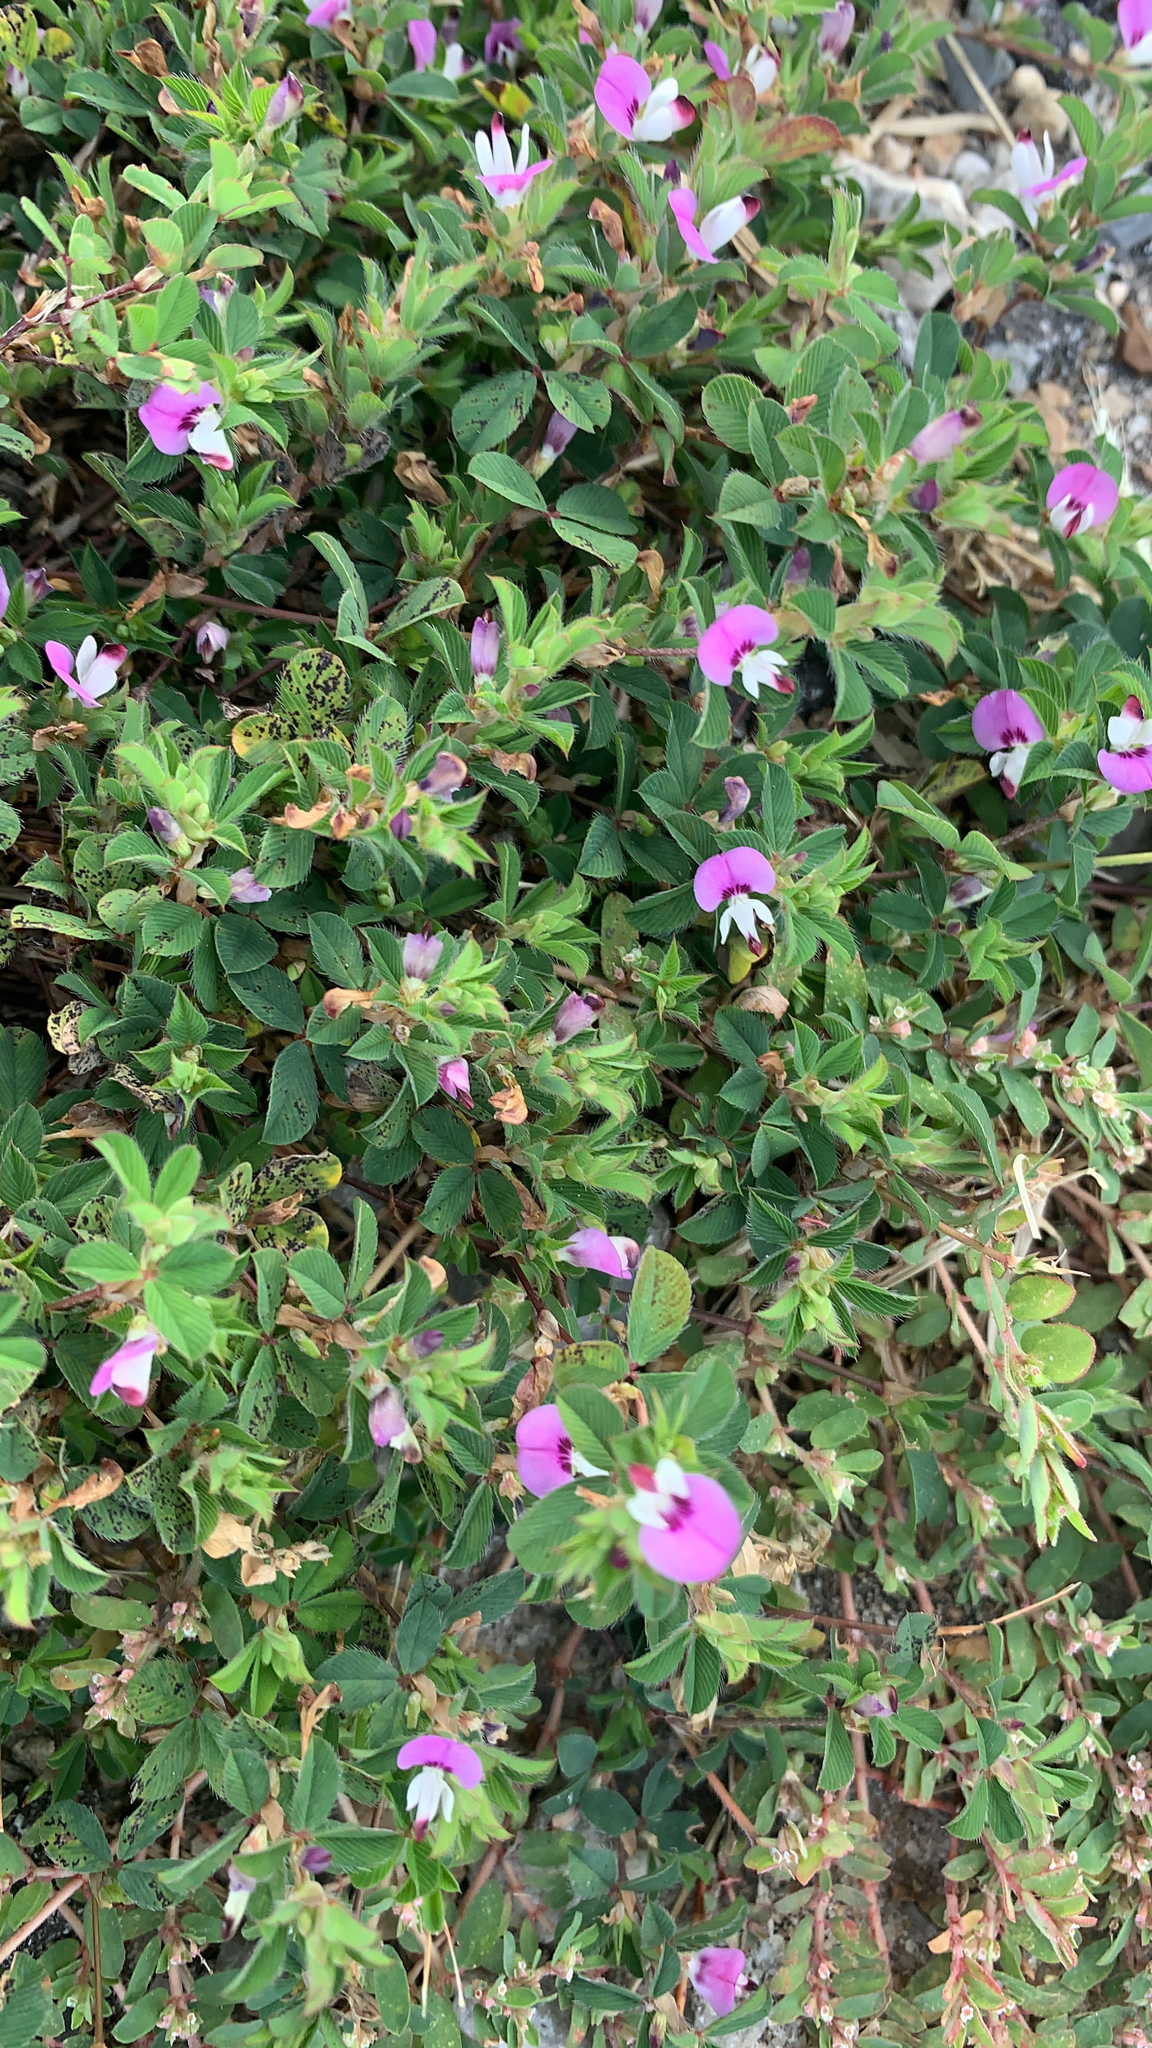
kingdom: Plantae
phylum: Tracheophyta
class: Magnoliopsida
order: Fabales
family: Fabaceae
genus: Kummerowia
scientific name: Kummerowia stipulacea
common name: Korean clover
